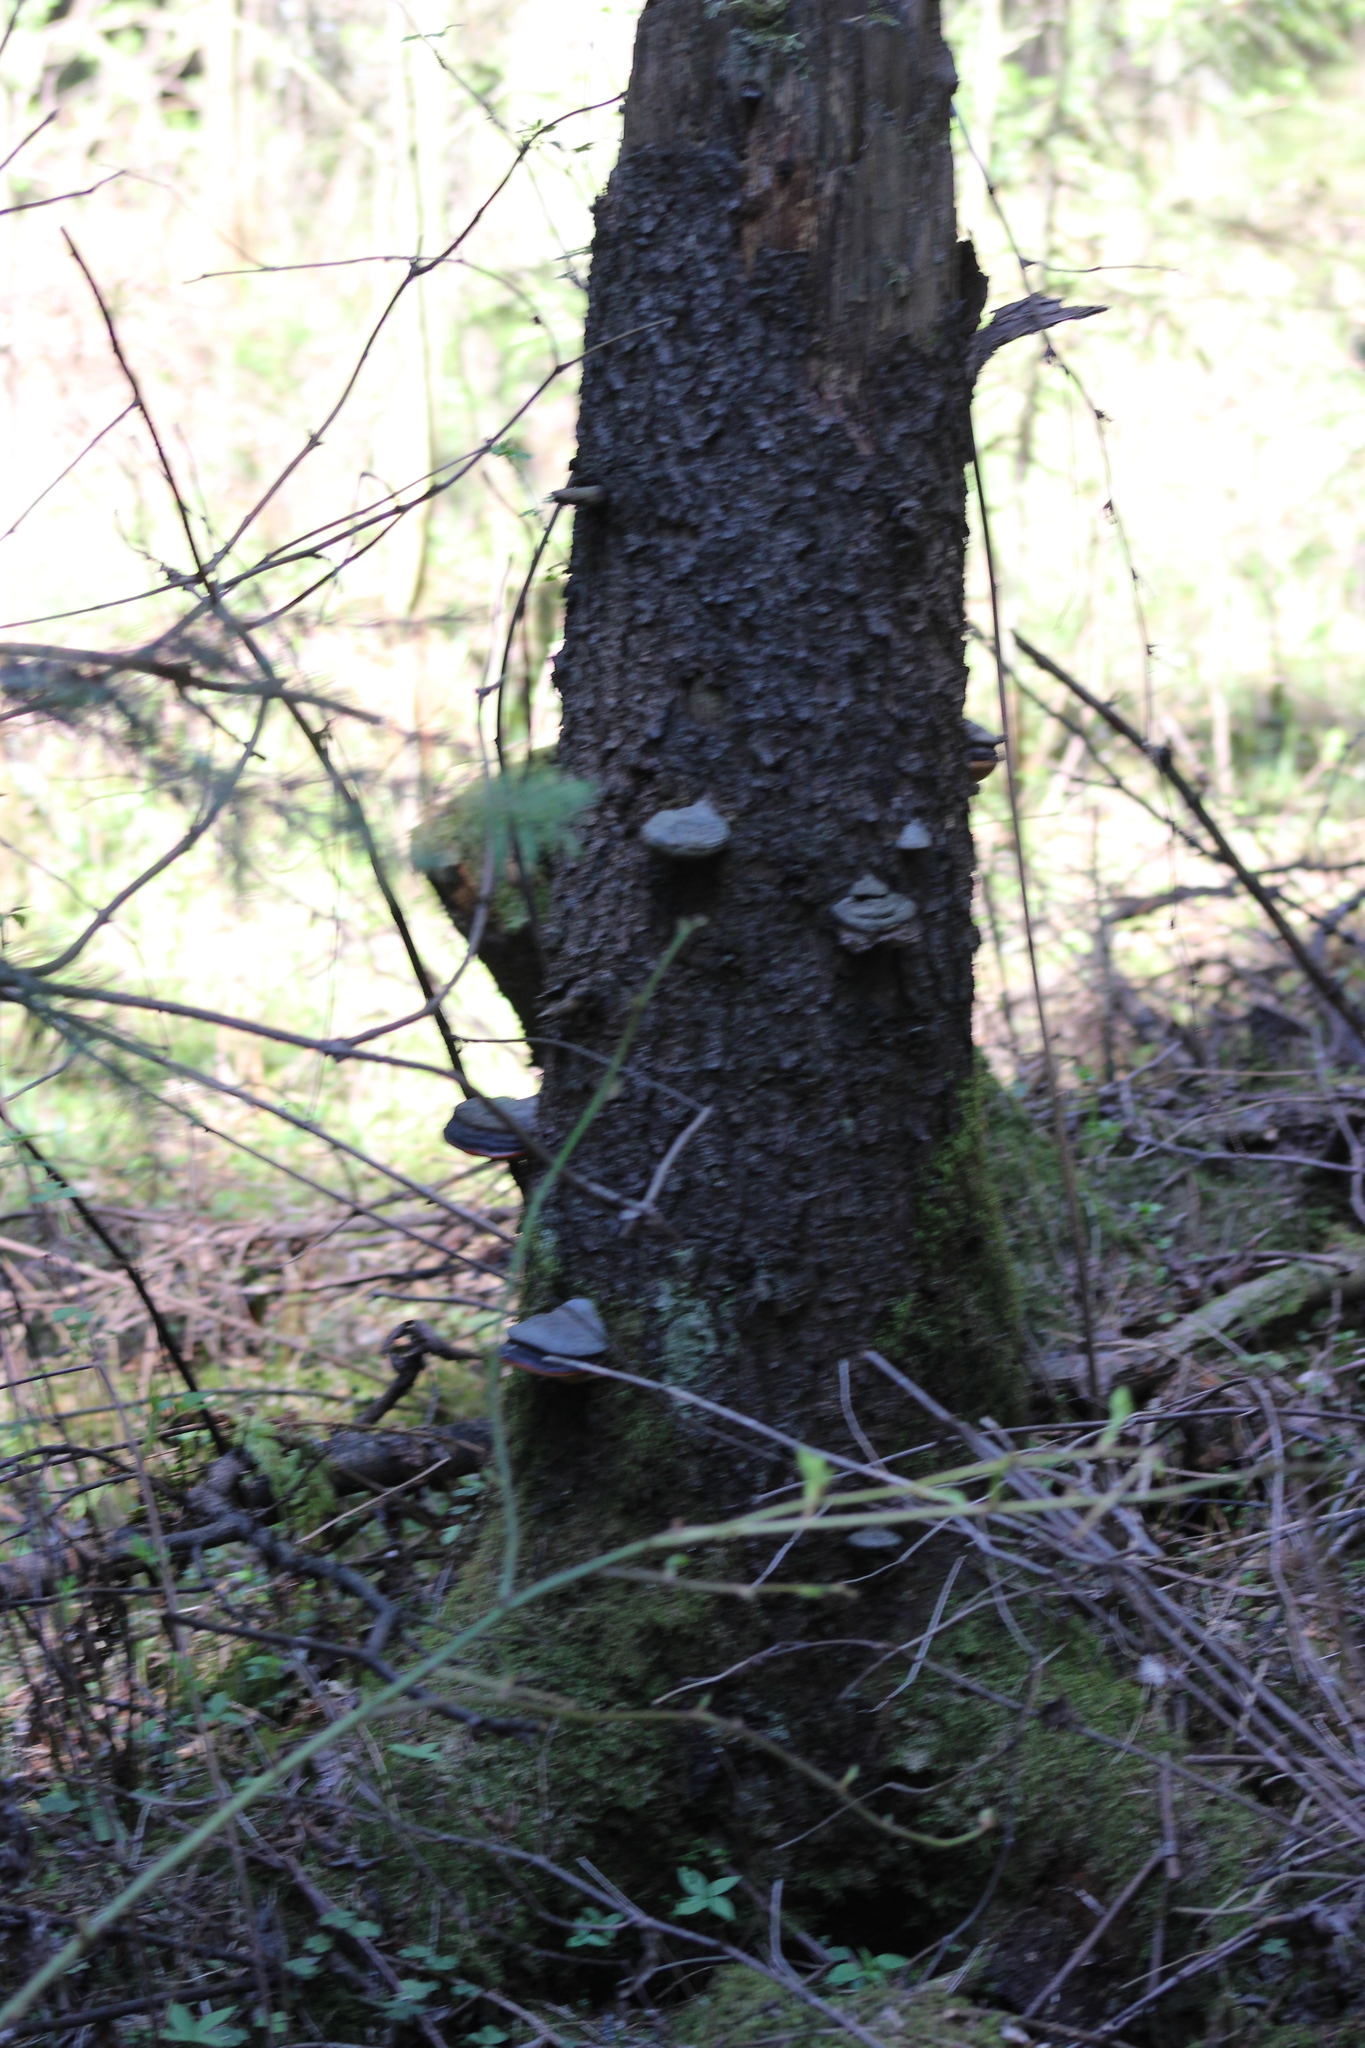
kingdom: Fungi
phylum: Basidiomycota
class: Agaricomycetes
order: Polyporales
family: Fomitopsidaceae
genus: Fomitopsis
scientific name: Fomitopsis pinicola
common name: Red-belted bracket
